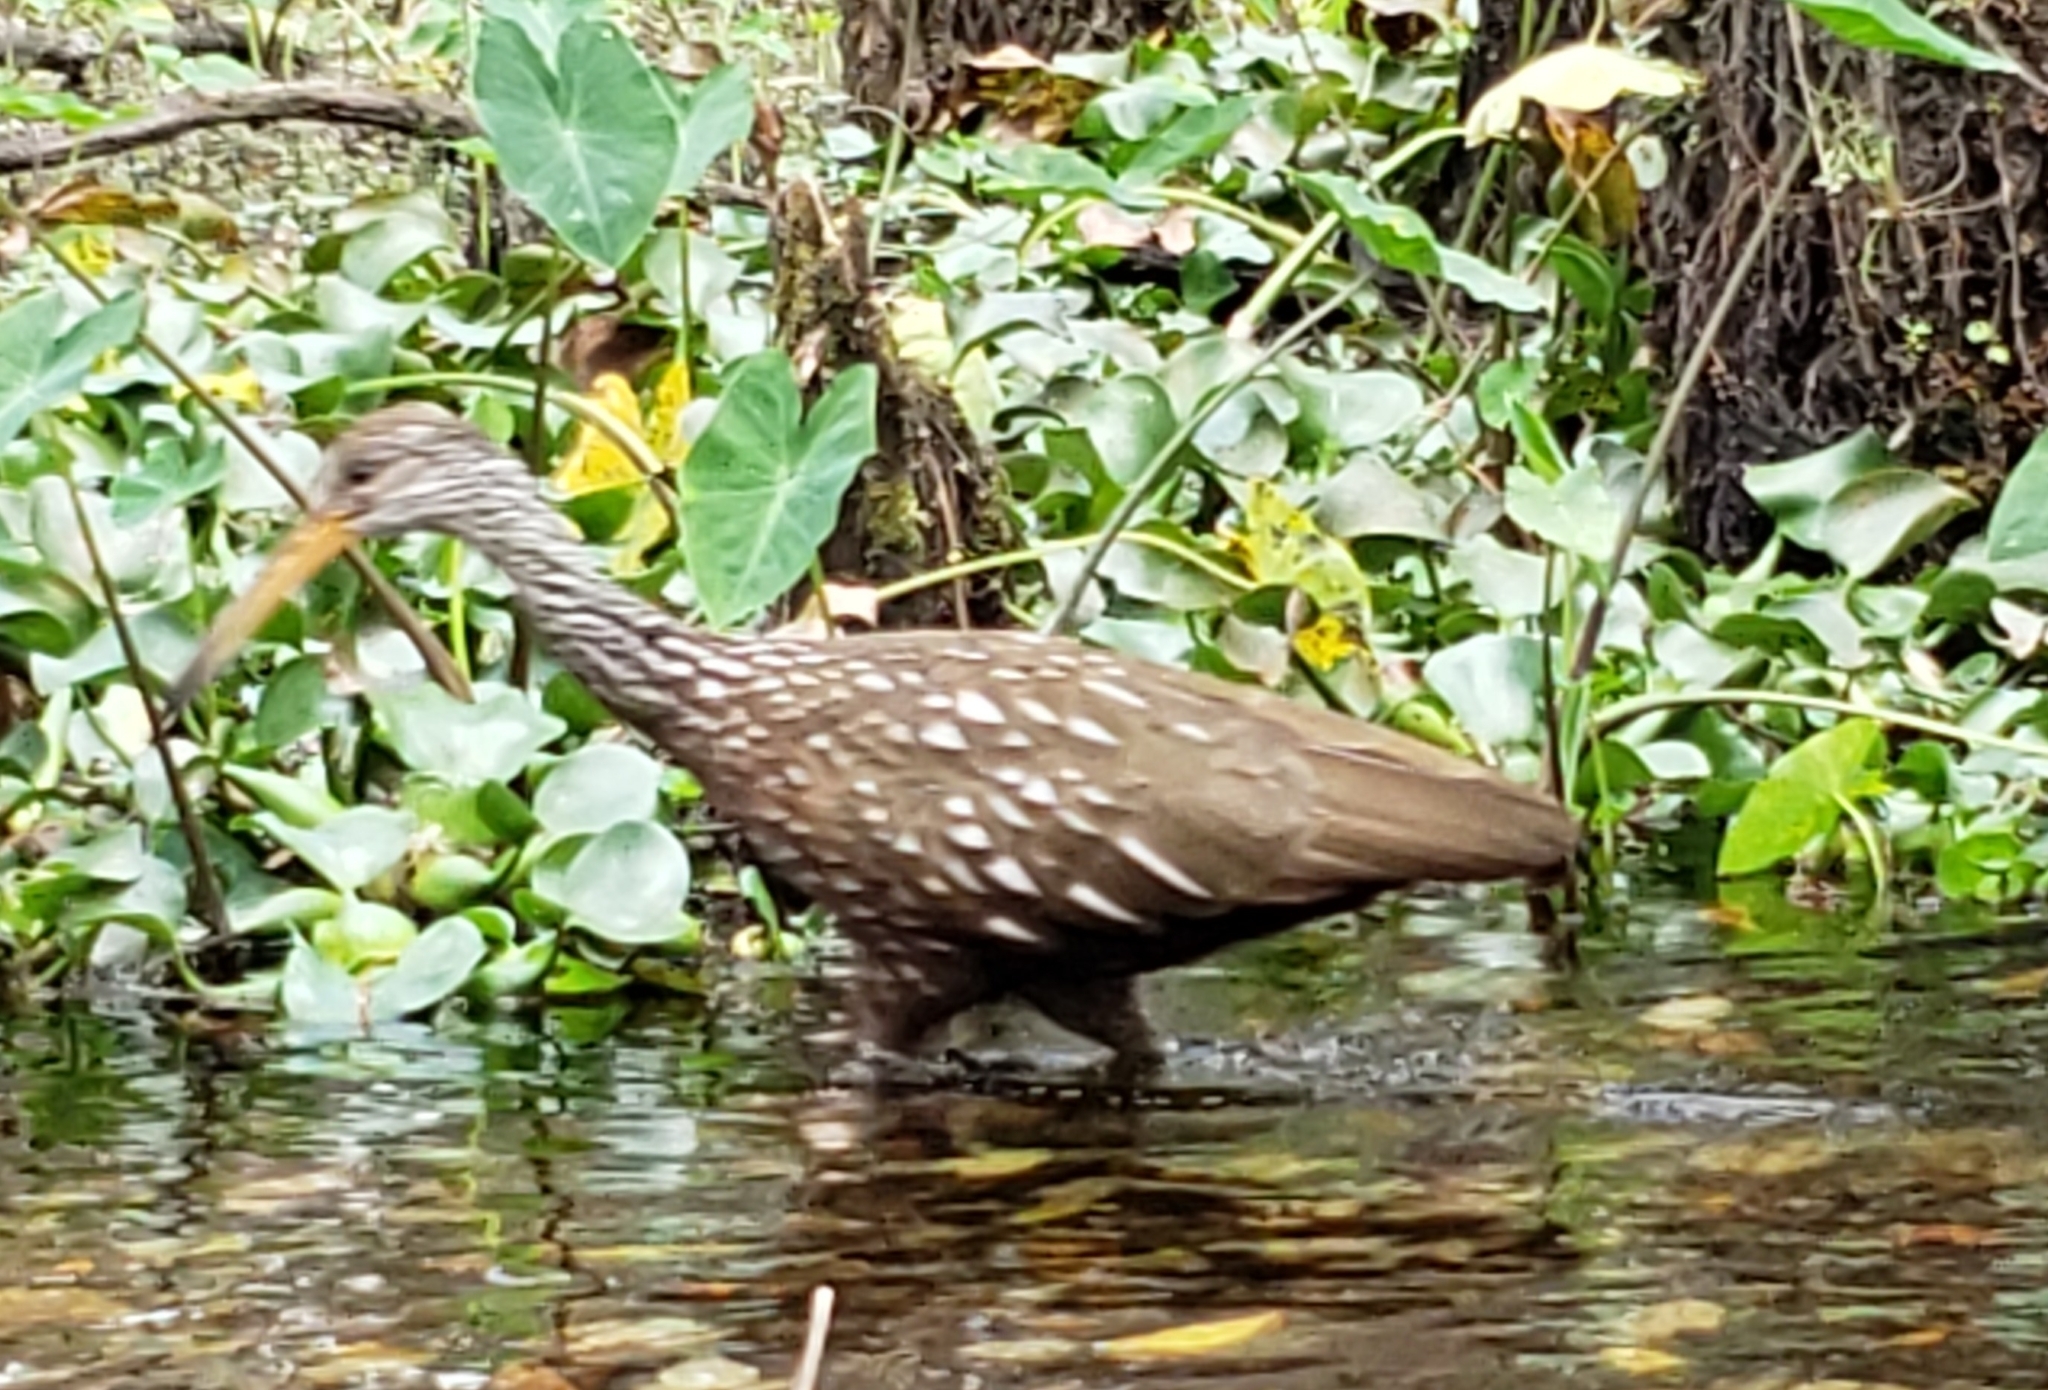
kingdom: Animalia
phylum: Chordata
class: Aves
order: Gruiformes
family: Aramidae
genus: Aramus
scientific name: Aramus guarauna
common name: Limpkin
